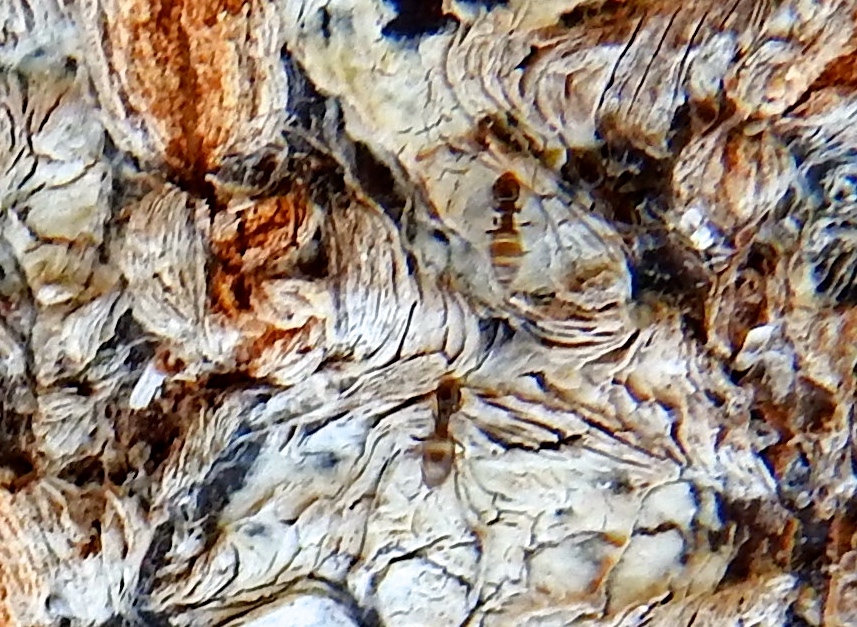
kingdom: Animalia
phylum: Arthropoda
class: Insecta
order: Hymenoptera
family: Formicidae
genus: Tapinoma
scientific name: Tapinoma melanocephalum
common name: Ghost ant
